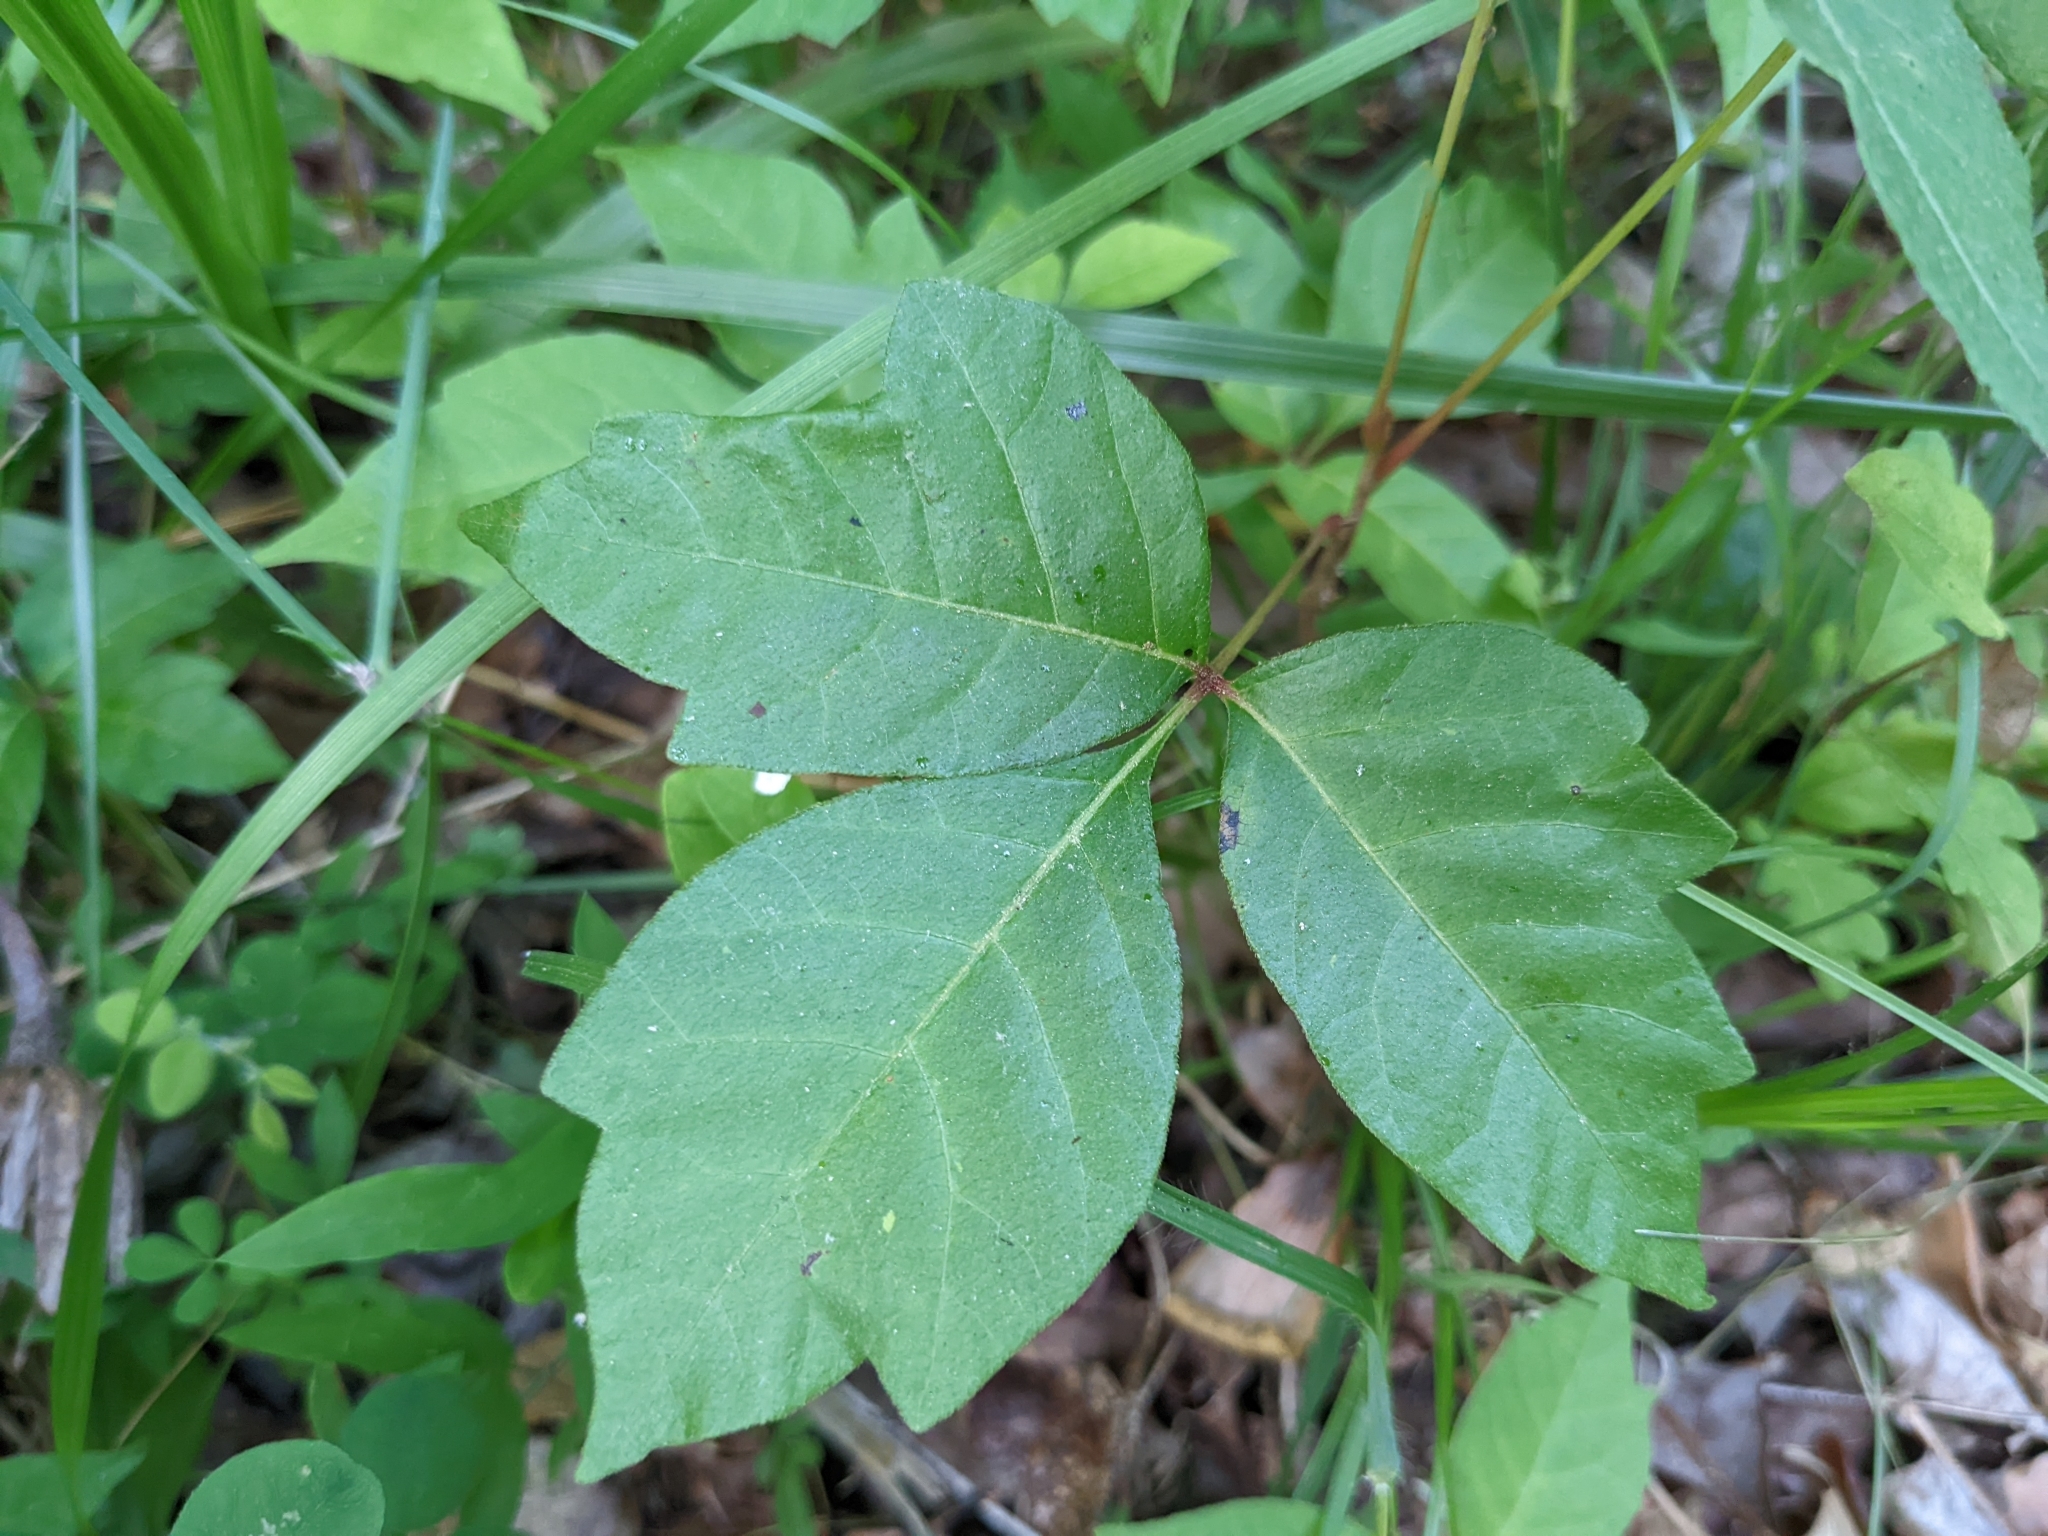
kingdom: Plantae
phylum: Tracheophyta
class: Magnoliopsida
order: Sapindales
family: Anacardiaceae
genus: Toxicodendron
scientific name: Toxicodendron radicans
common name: Poison ivy
